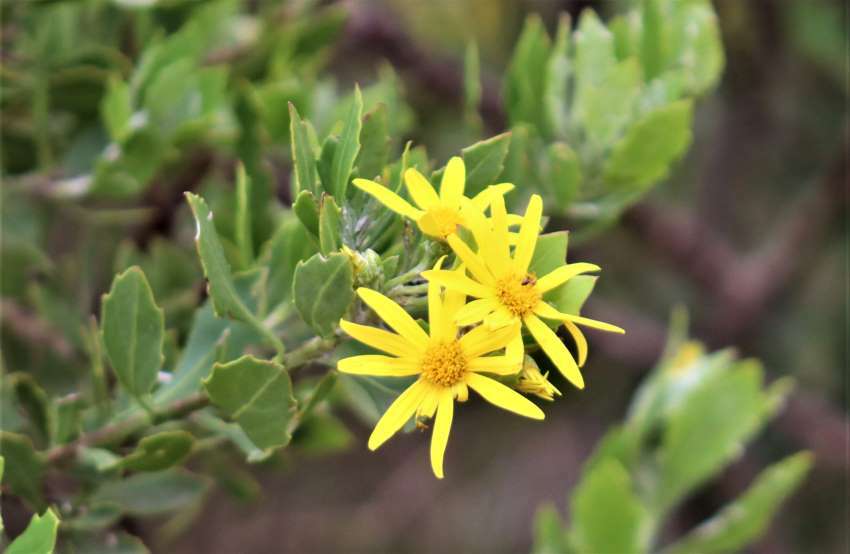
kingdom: Plantae
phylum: Tracheophyta
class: Magnoliopsida
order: Asterales
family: Asteraceae
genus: Osteospermum
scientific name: Osteospermum moniliferum
